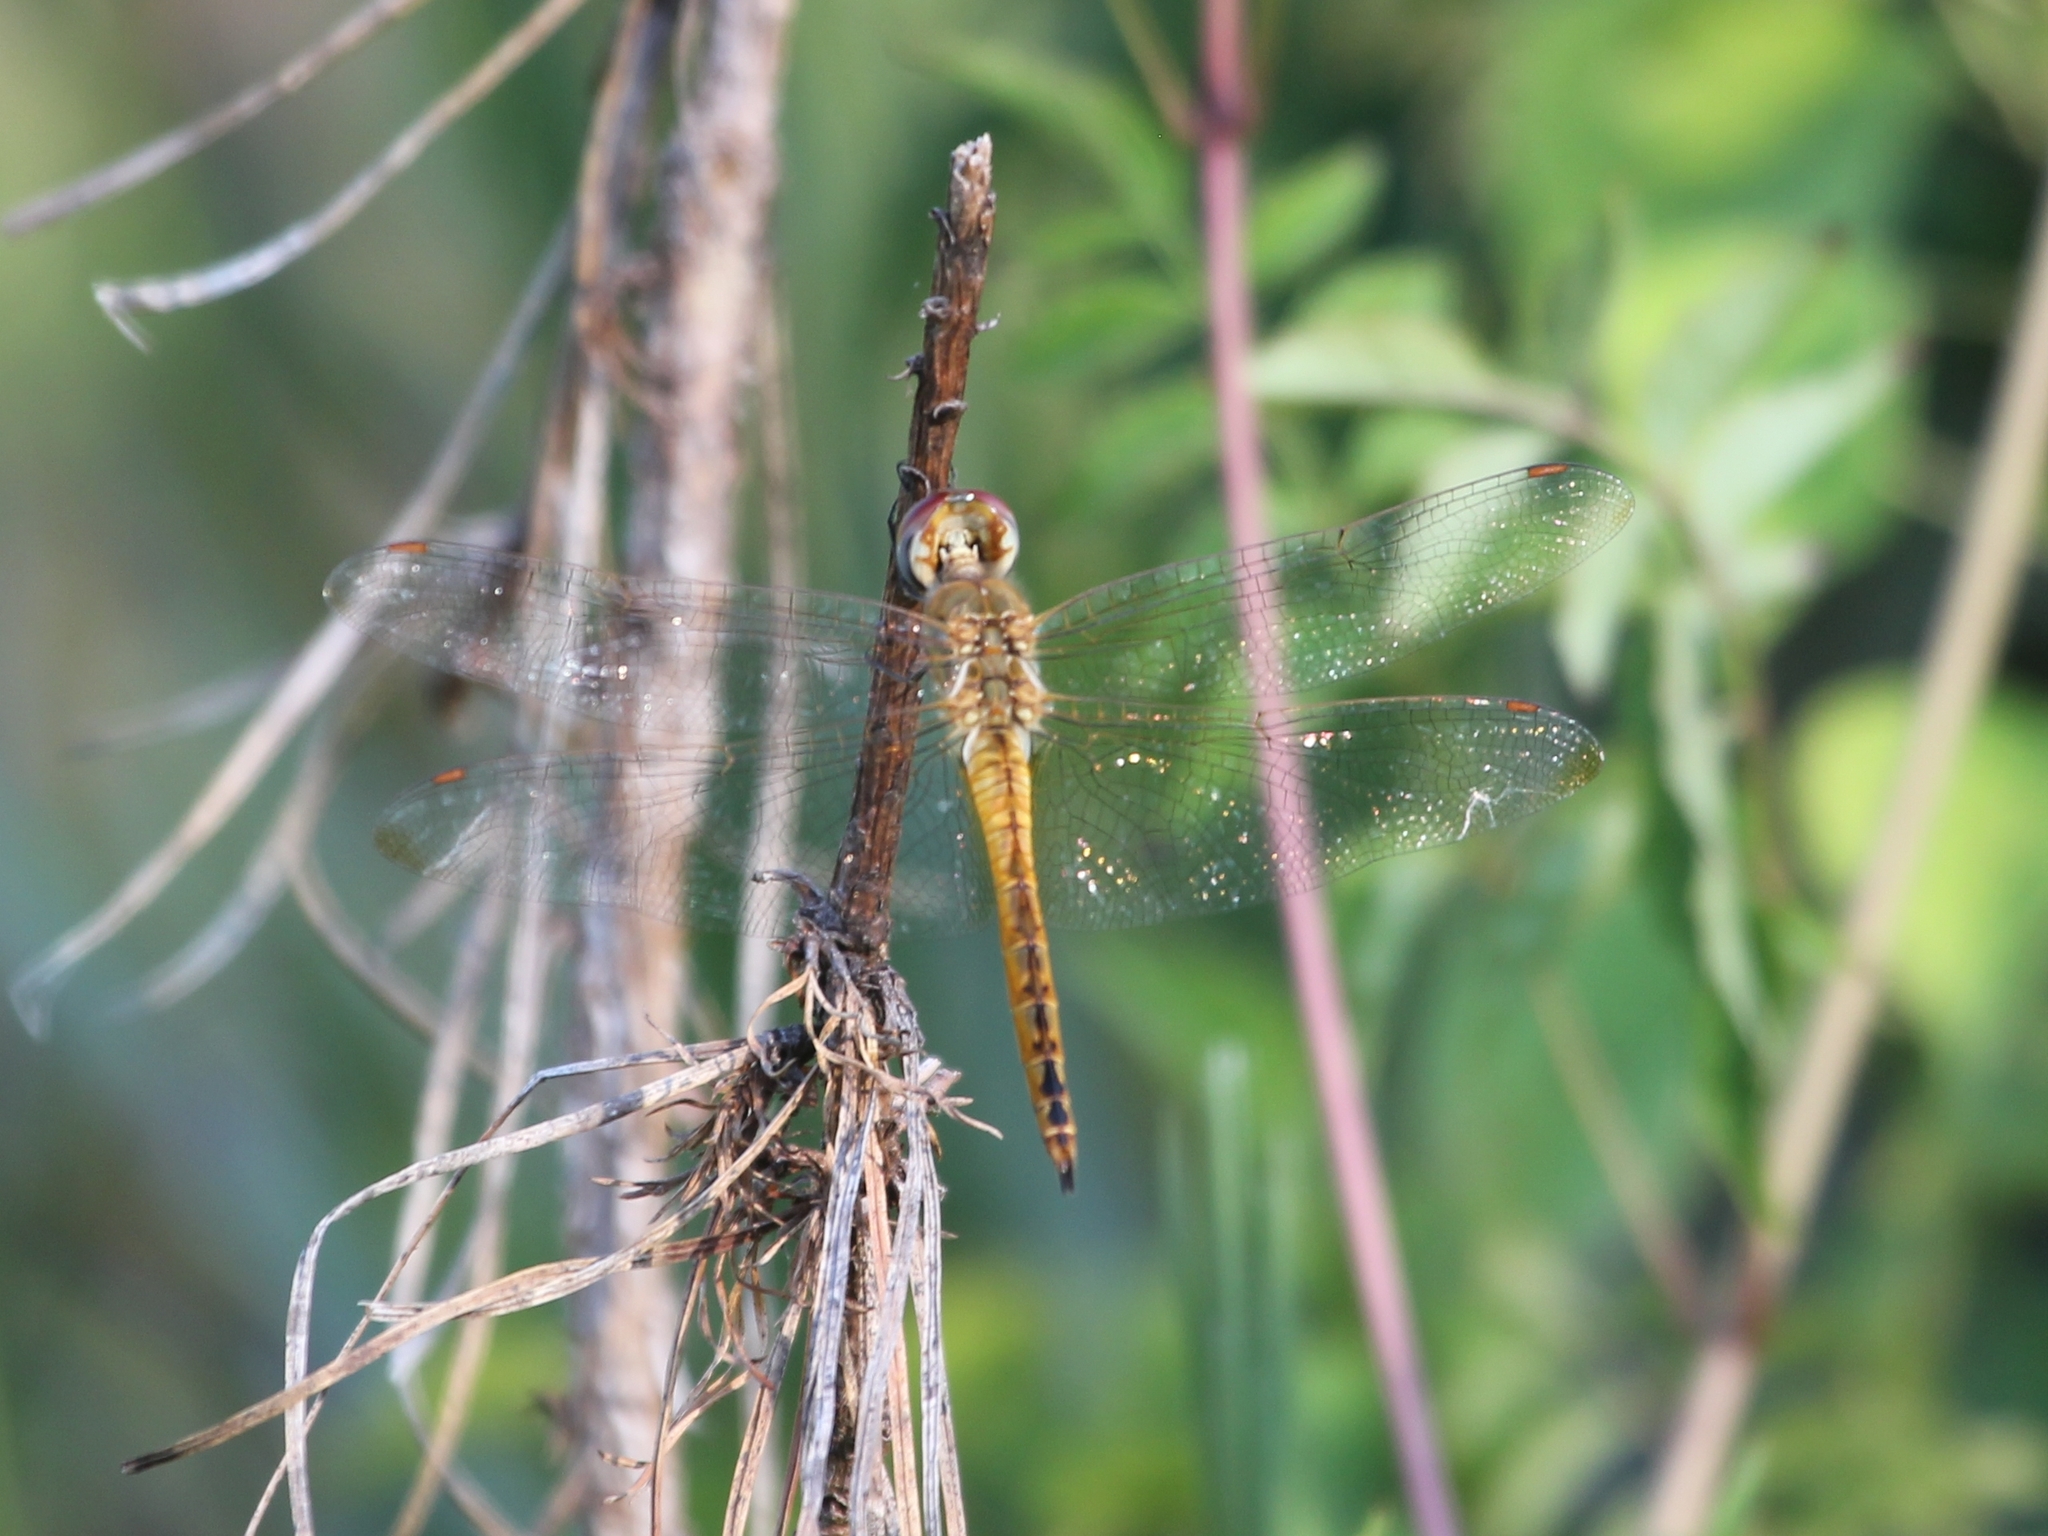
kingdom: Animalia
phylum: Arthropoda
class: Insecta
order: Odonata
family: Libellulidae
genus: Pantala
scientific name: Pantala flavescens
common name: Wandering glider
